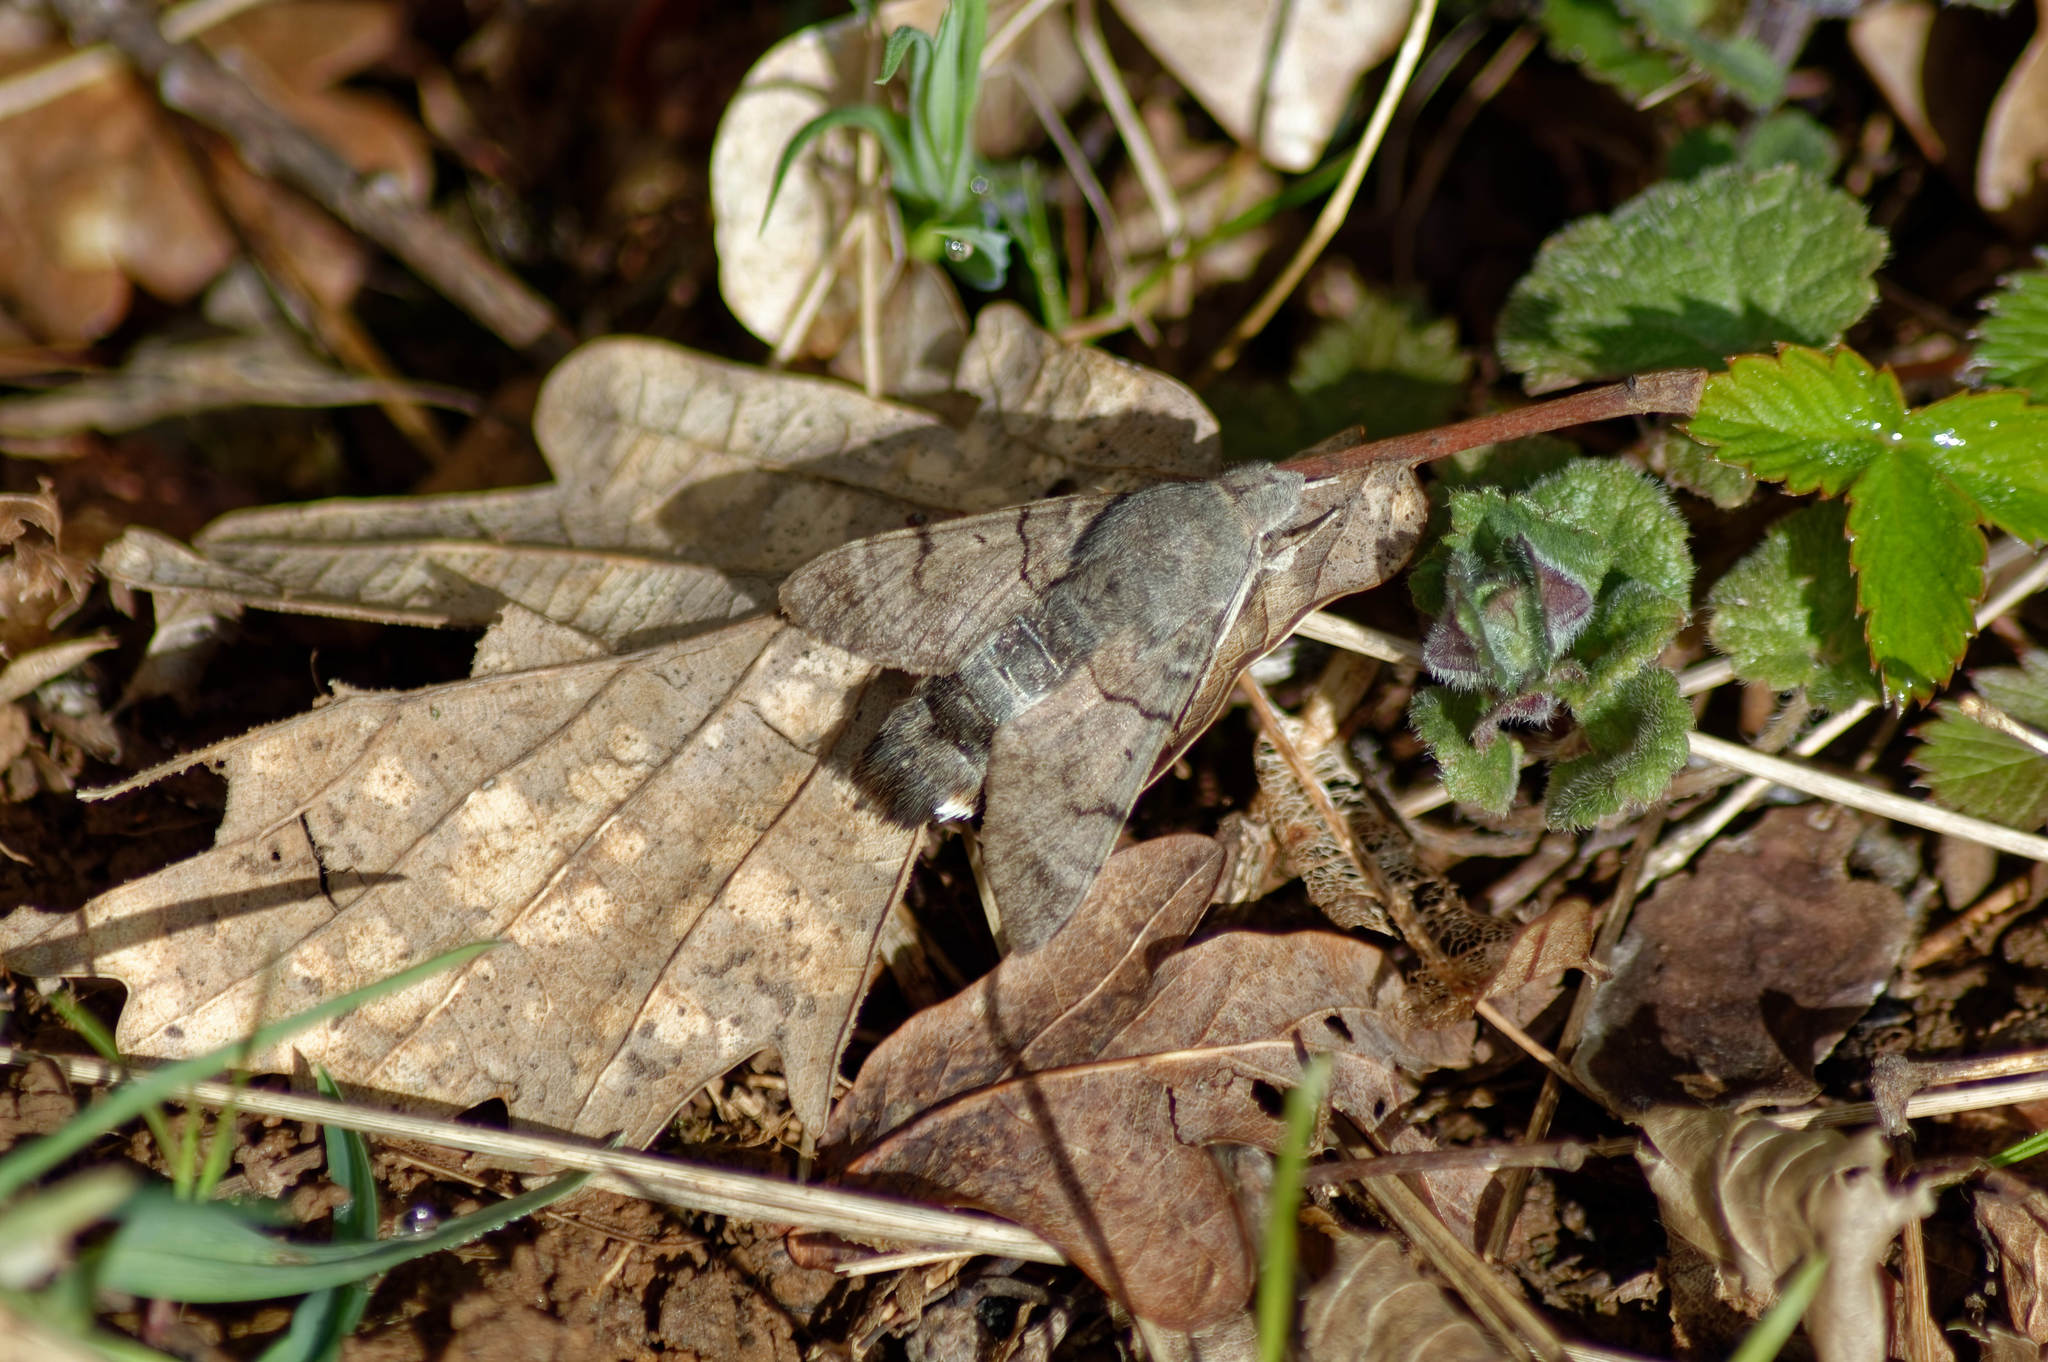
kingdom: Animalia
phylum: Arthropoda
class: Insecta
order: Lepidoptera
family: Sphingidae
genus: Macroglossum
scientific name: Macroglossum stellatarum
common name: Humming-bird hawk-moth
